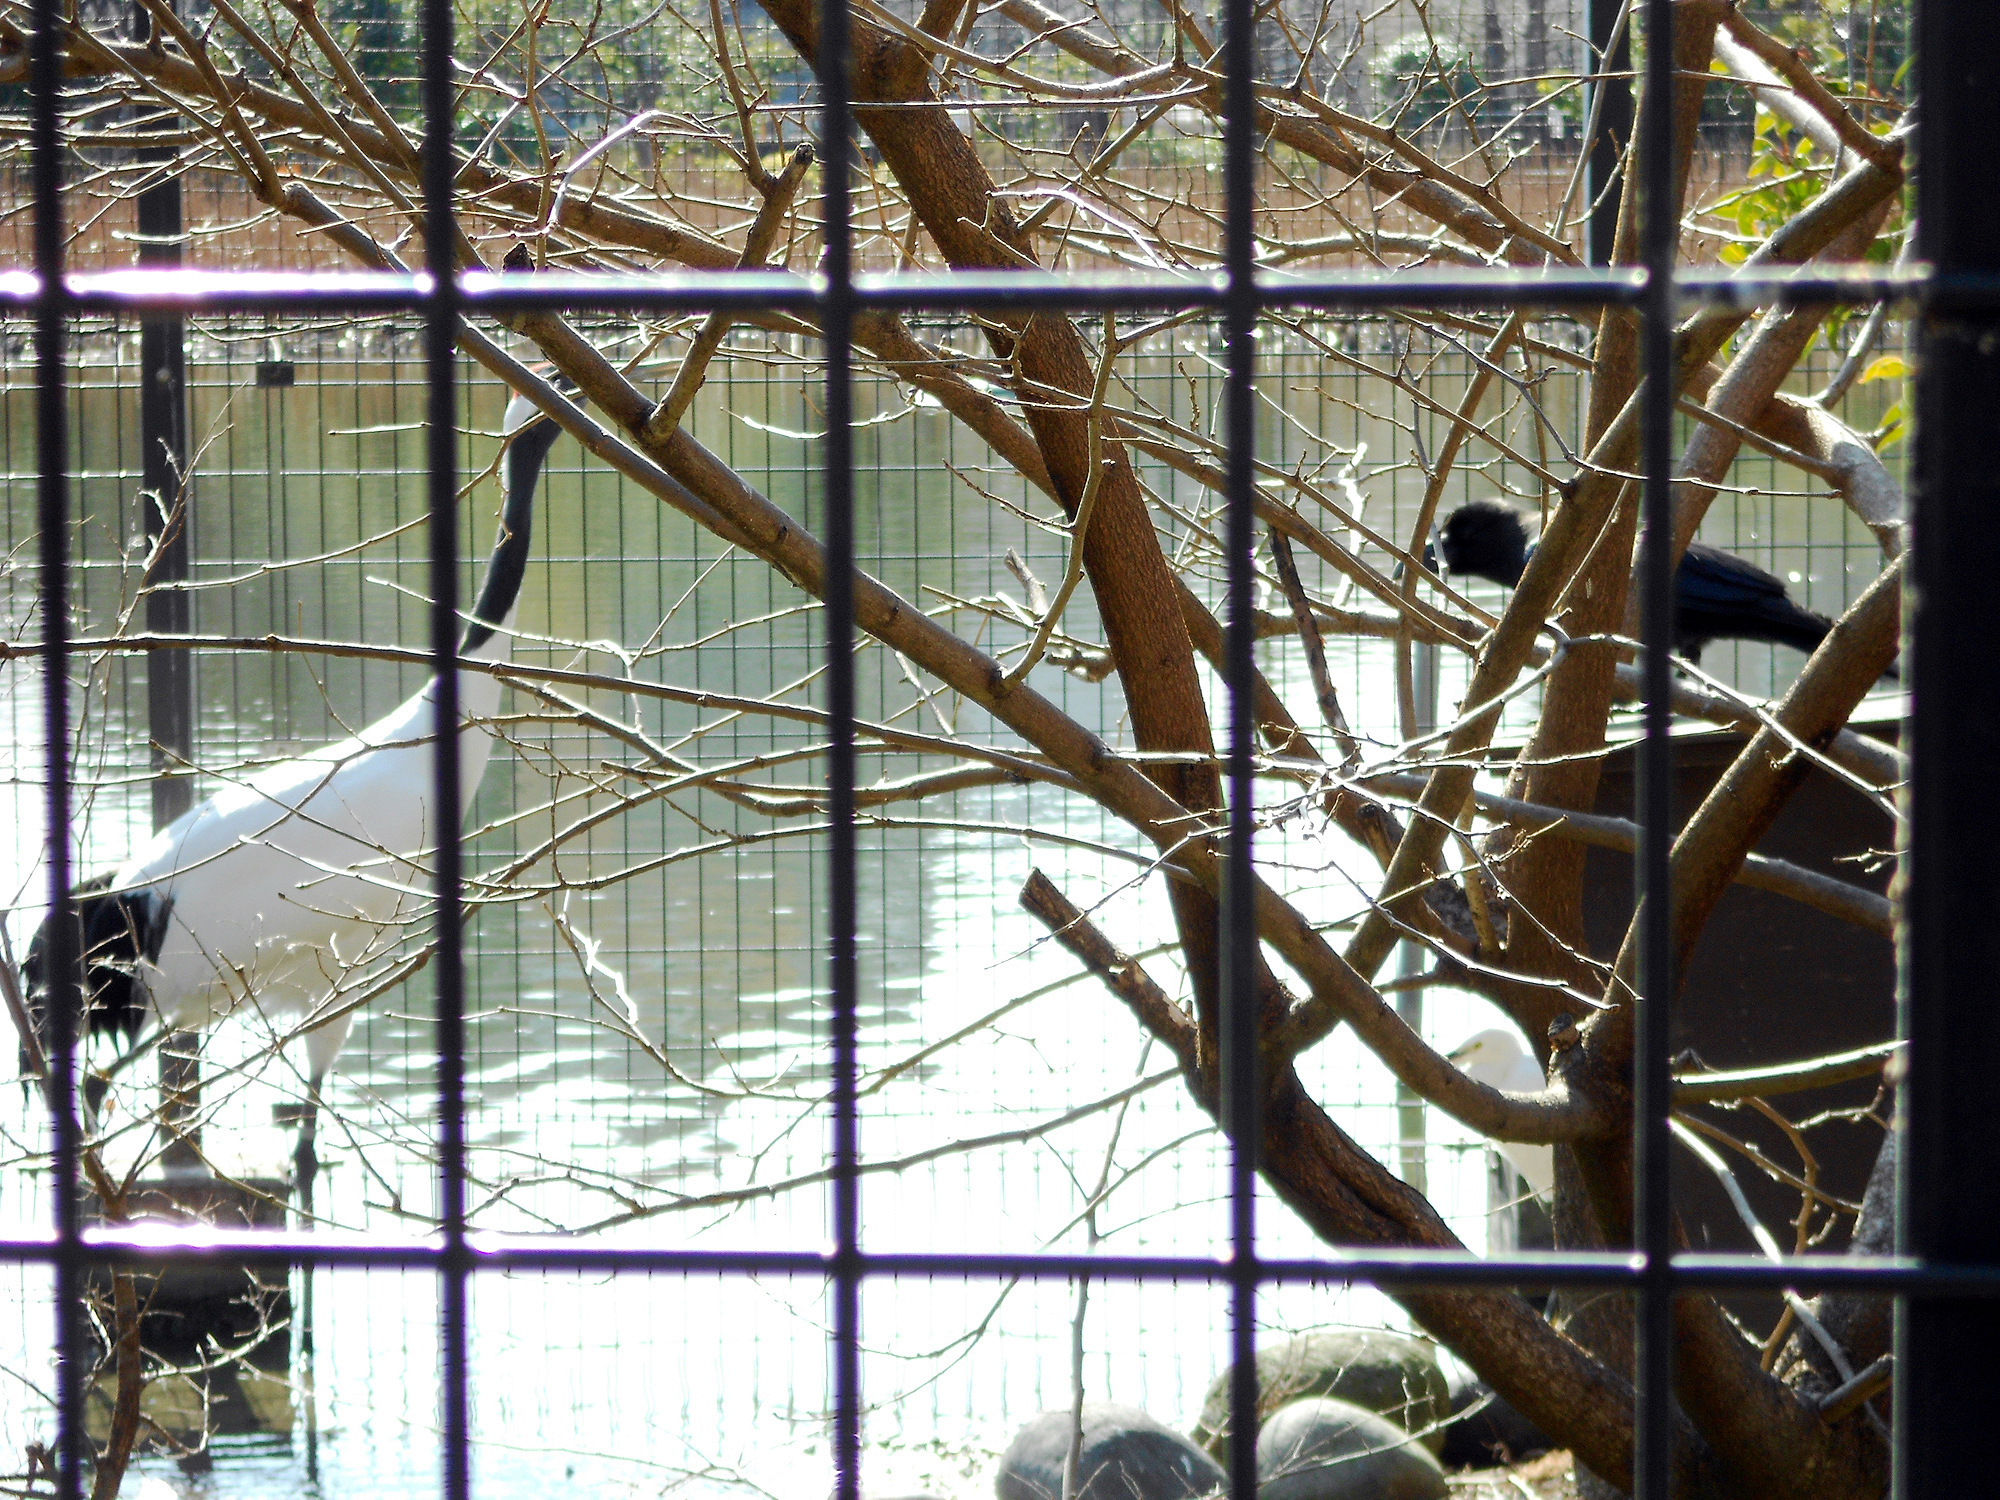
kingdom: Animalia
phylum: Chordata
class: Aves
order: Passeriformes
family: Corvidae
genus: Corvus
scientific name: Corvus macrorhynchos
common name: Large-billed crow
